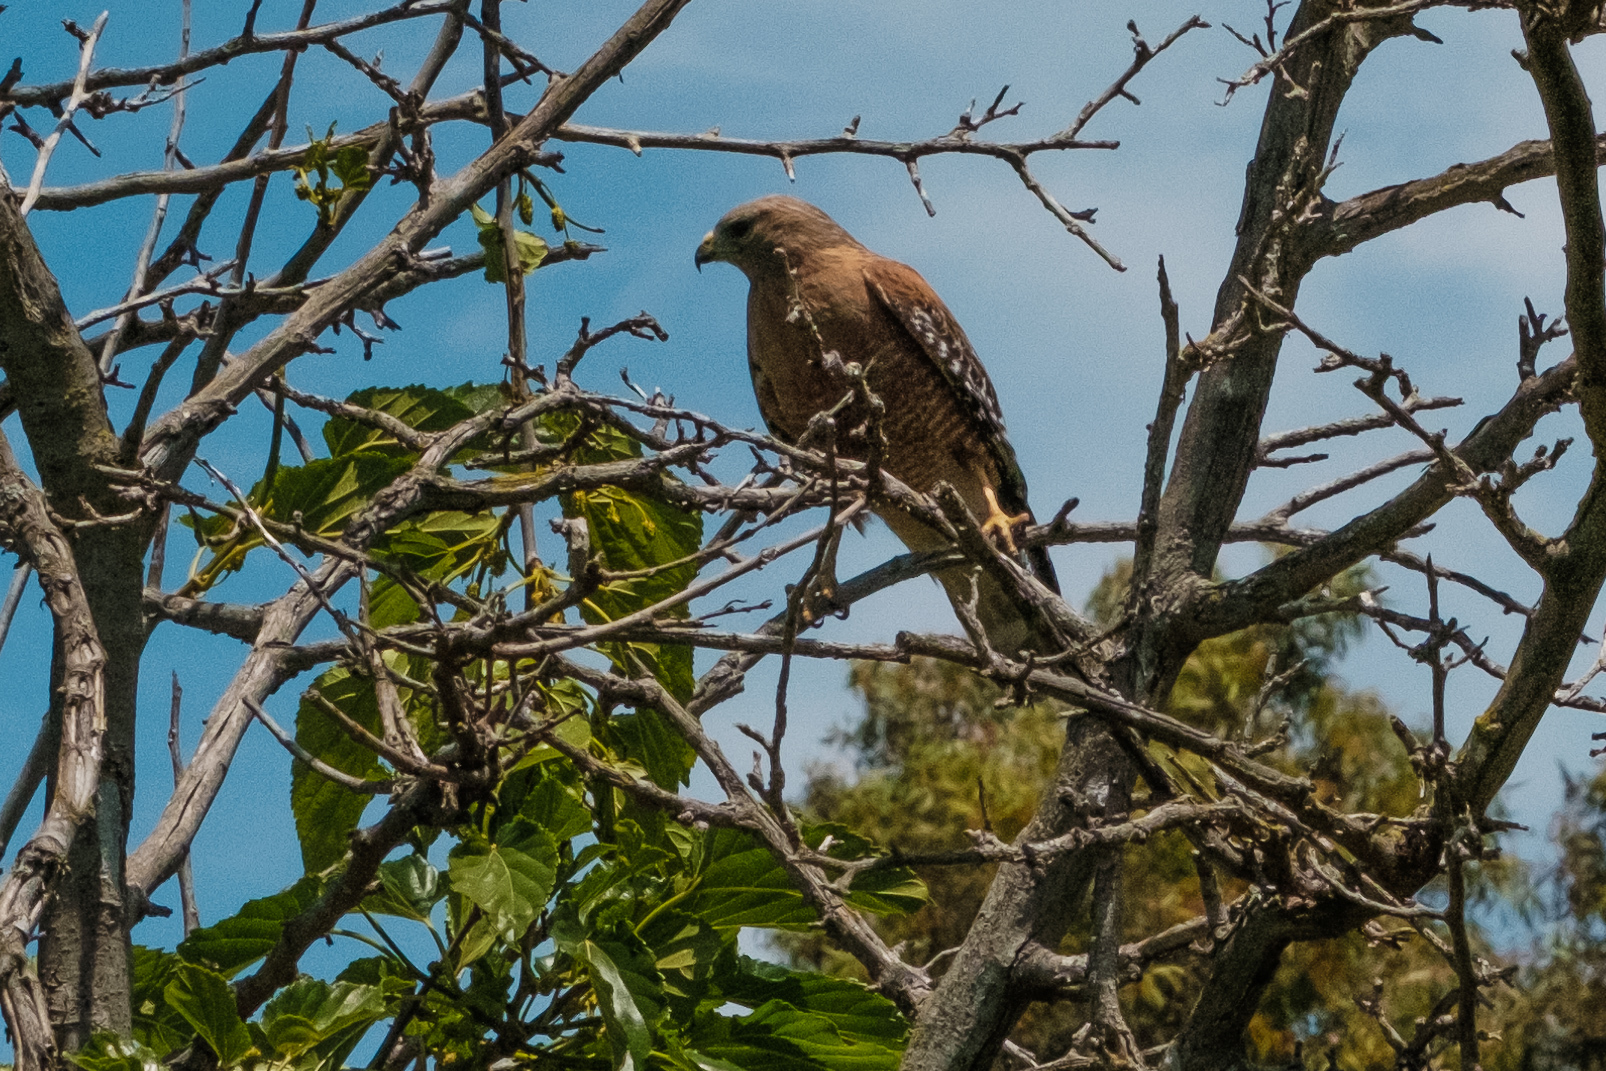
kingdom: Animalia
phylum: Chordata
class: Aves
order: Accipitriformes
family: Accipitridae
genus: Buteo
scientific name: Buteo lineatus
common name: Red-shouldered hawk
